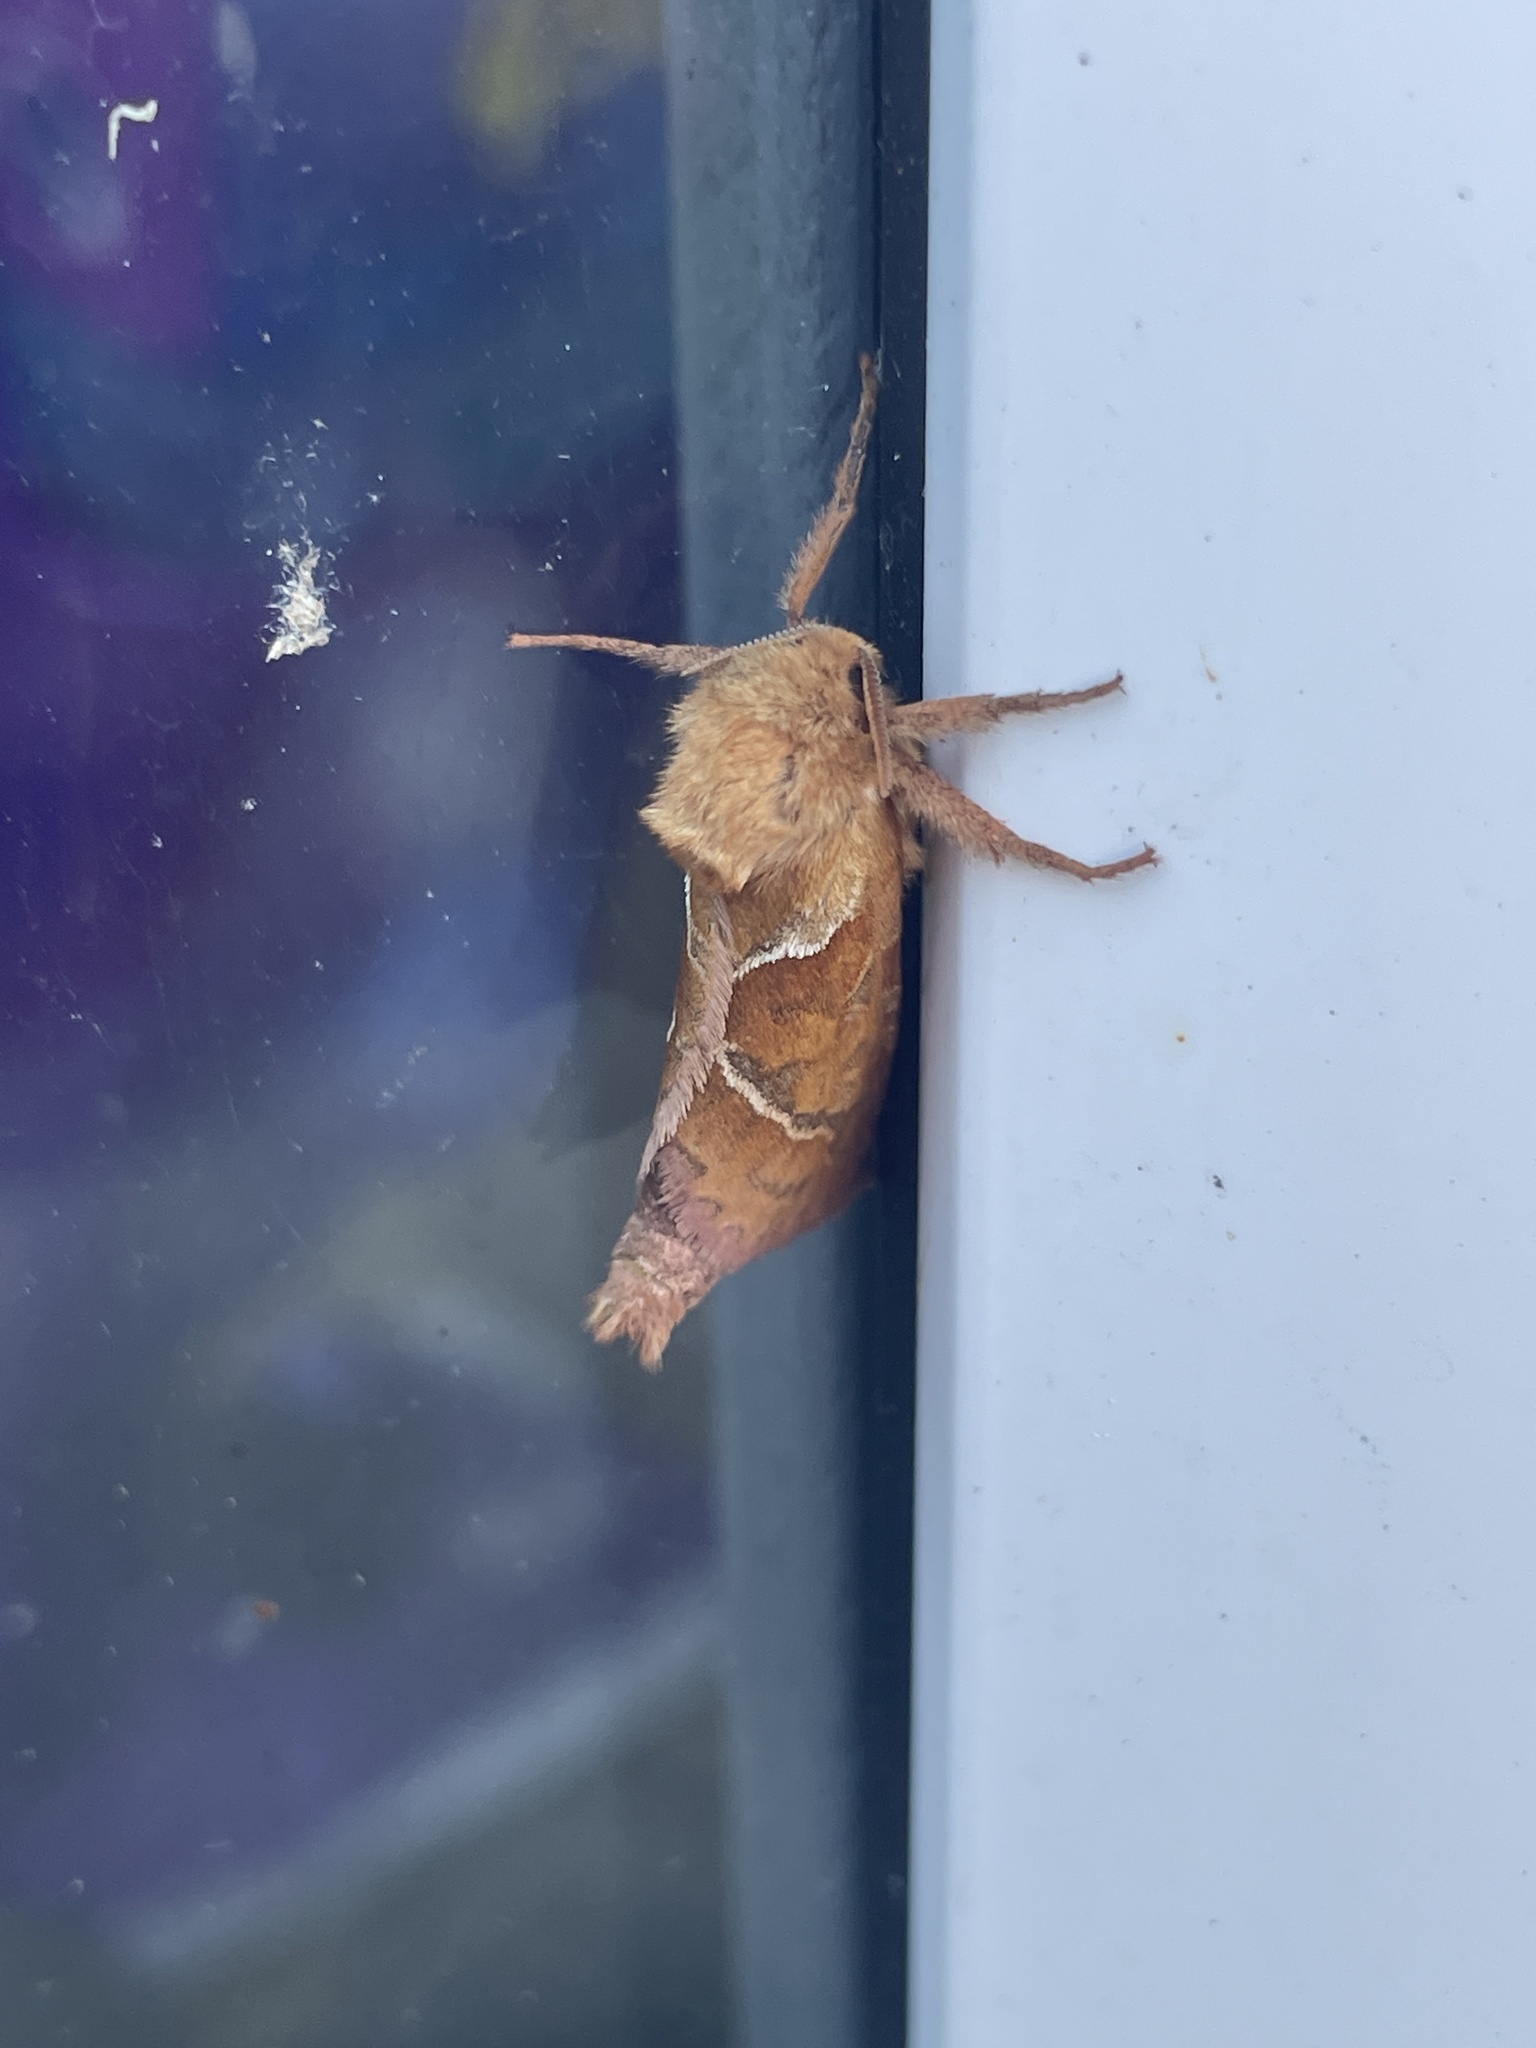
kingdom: Animalia
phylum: Arthropoda
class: Insecta
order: Lepidoptera
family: Hepialidae
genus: Triodia
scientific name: Triodia sylvina
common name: Orange swift
